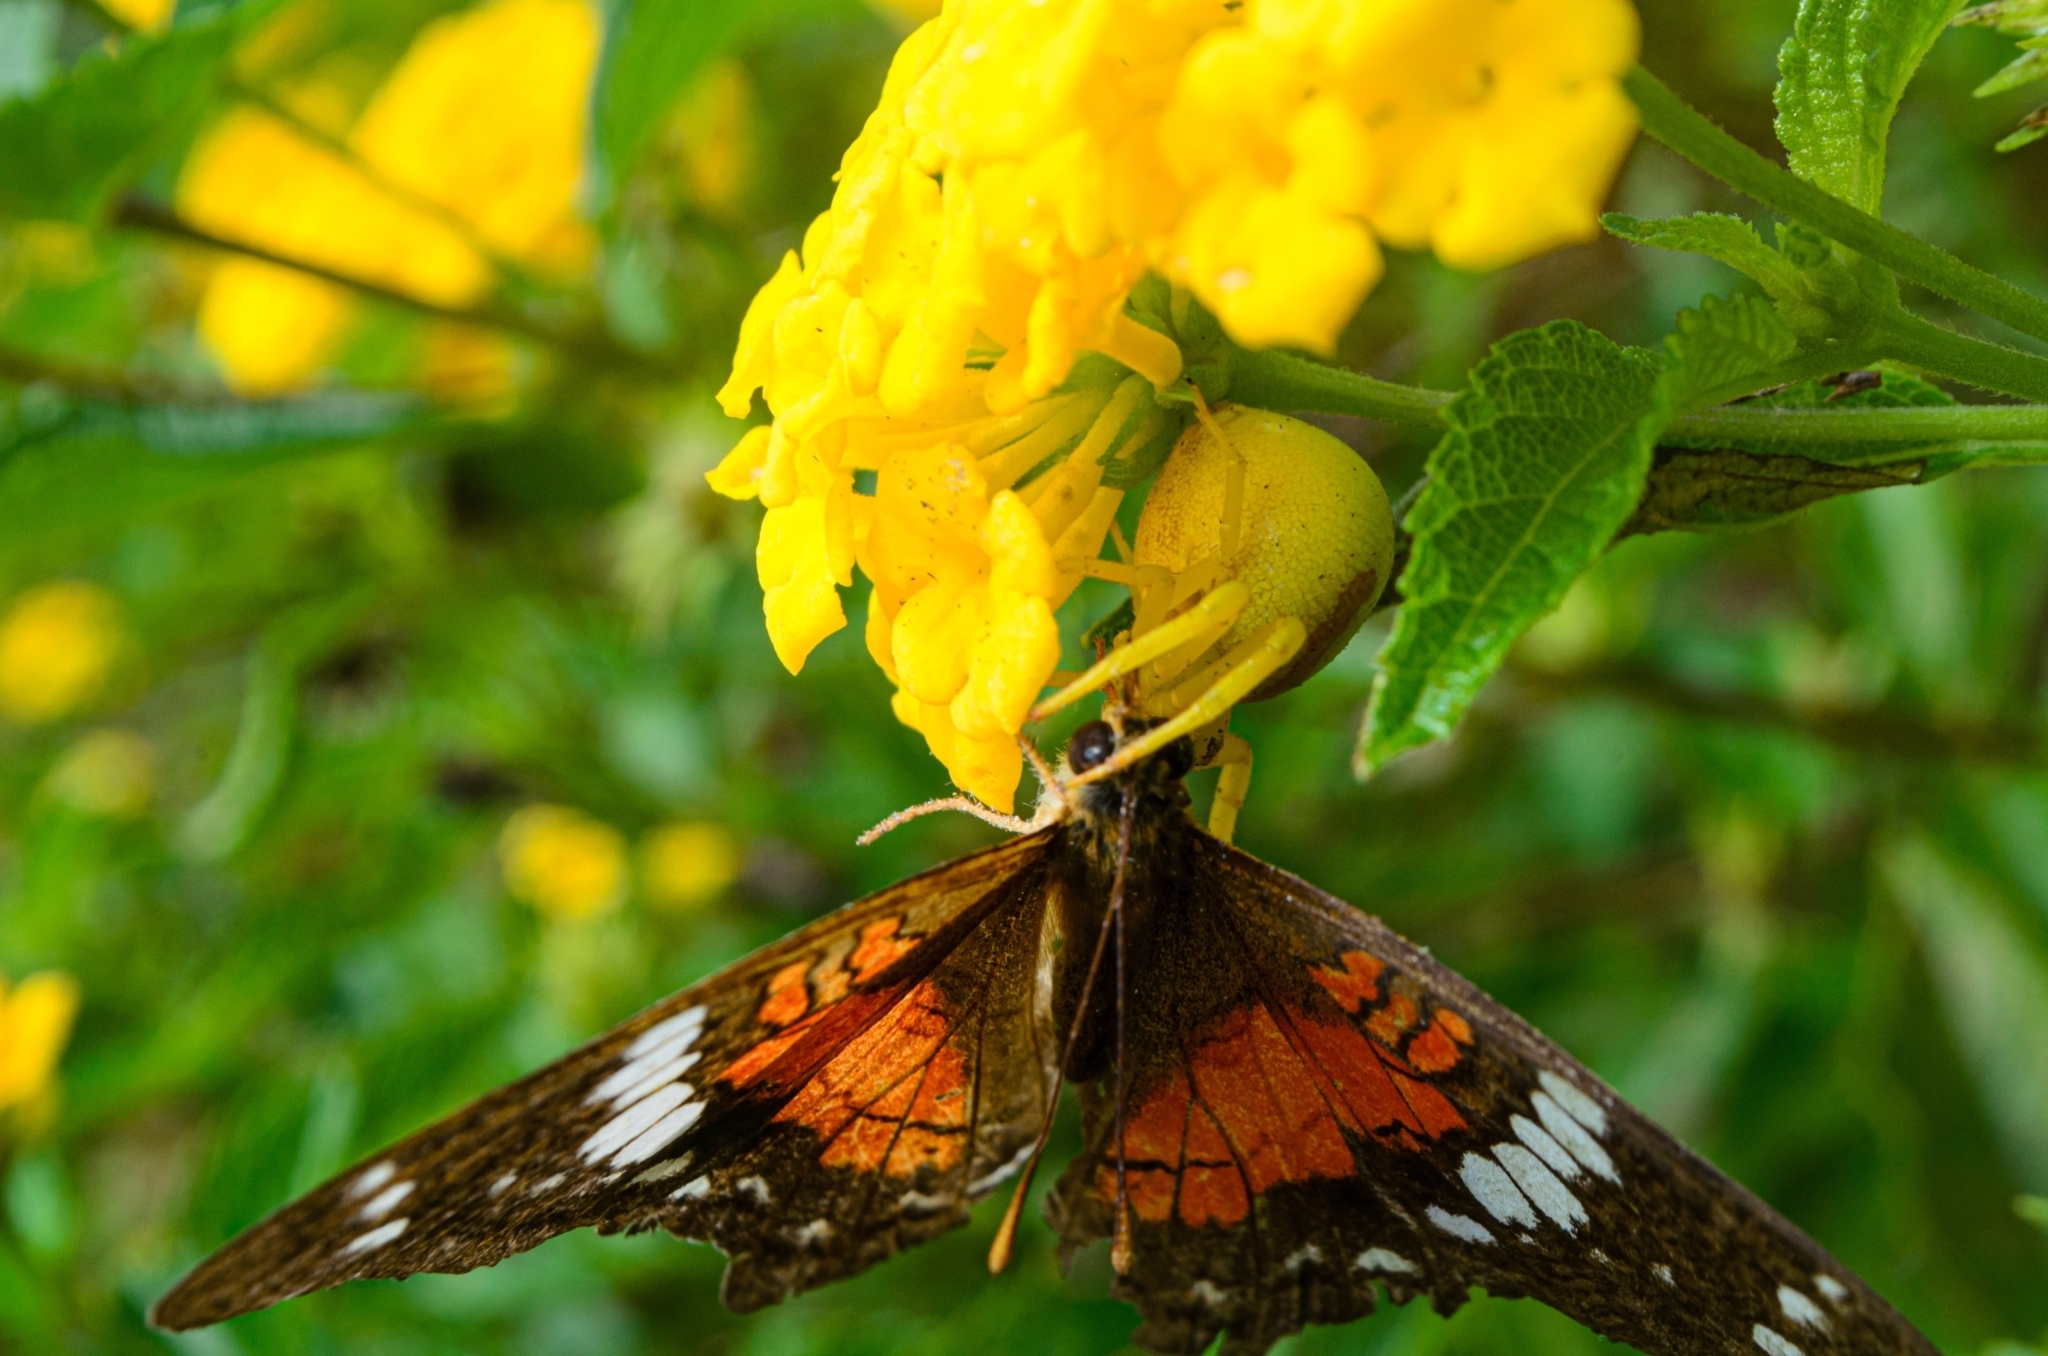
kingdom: Animalia
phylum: Arthropoda
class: Arachnida
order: Araneae
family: Thomisidae
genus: Misumenops
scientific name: Misumenops callinurus
